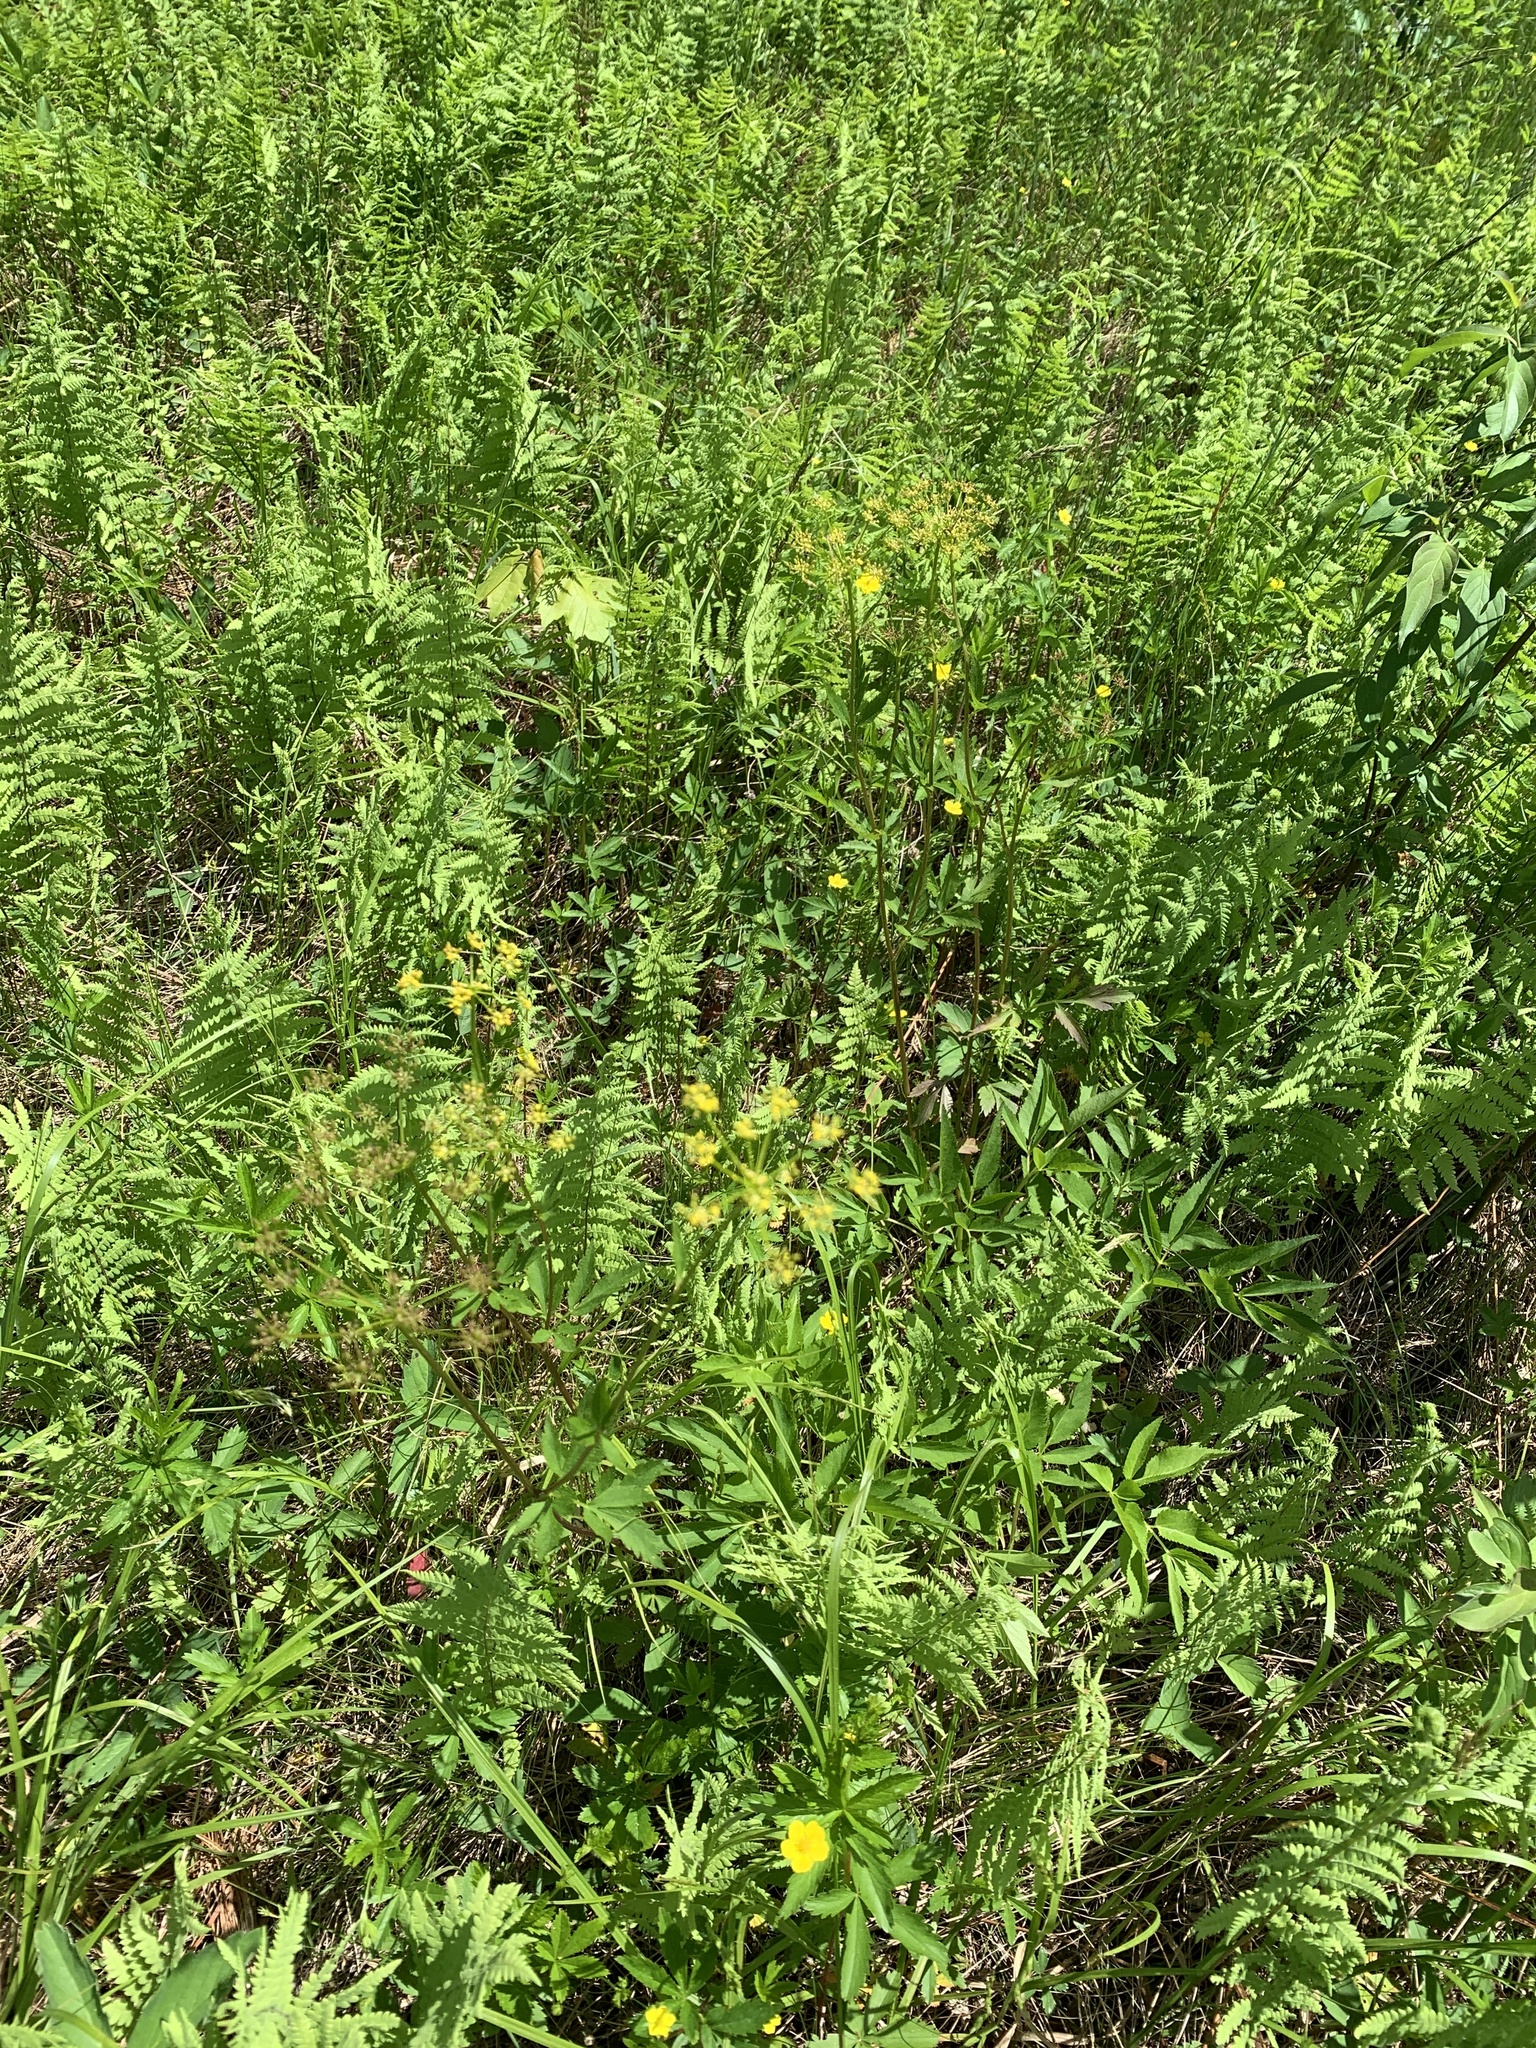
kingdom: Plantae
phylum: Tracheophyta
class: Magnoliopsida
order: Apiales
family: Apiaceae
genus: Zizia
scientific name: Zizia aurea
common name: Golden alexanders
